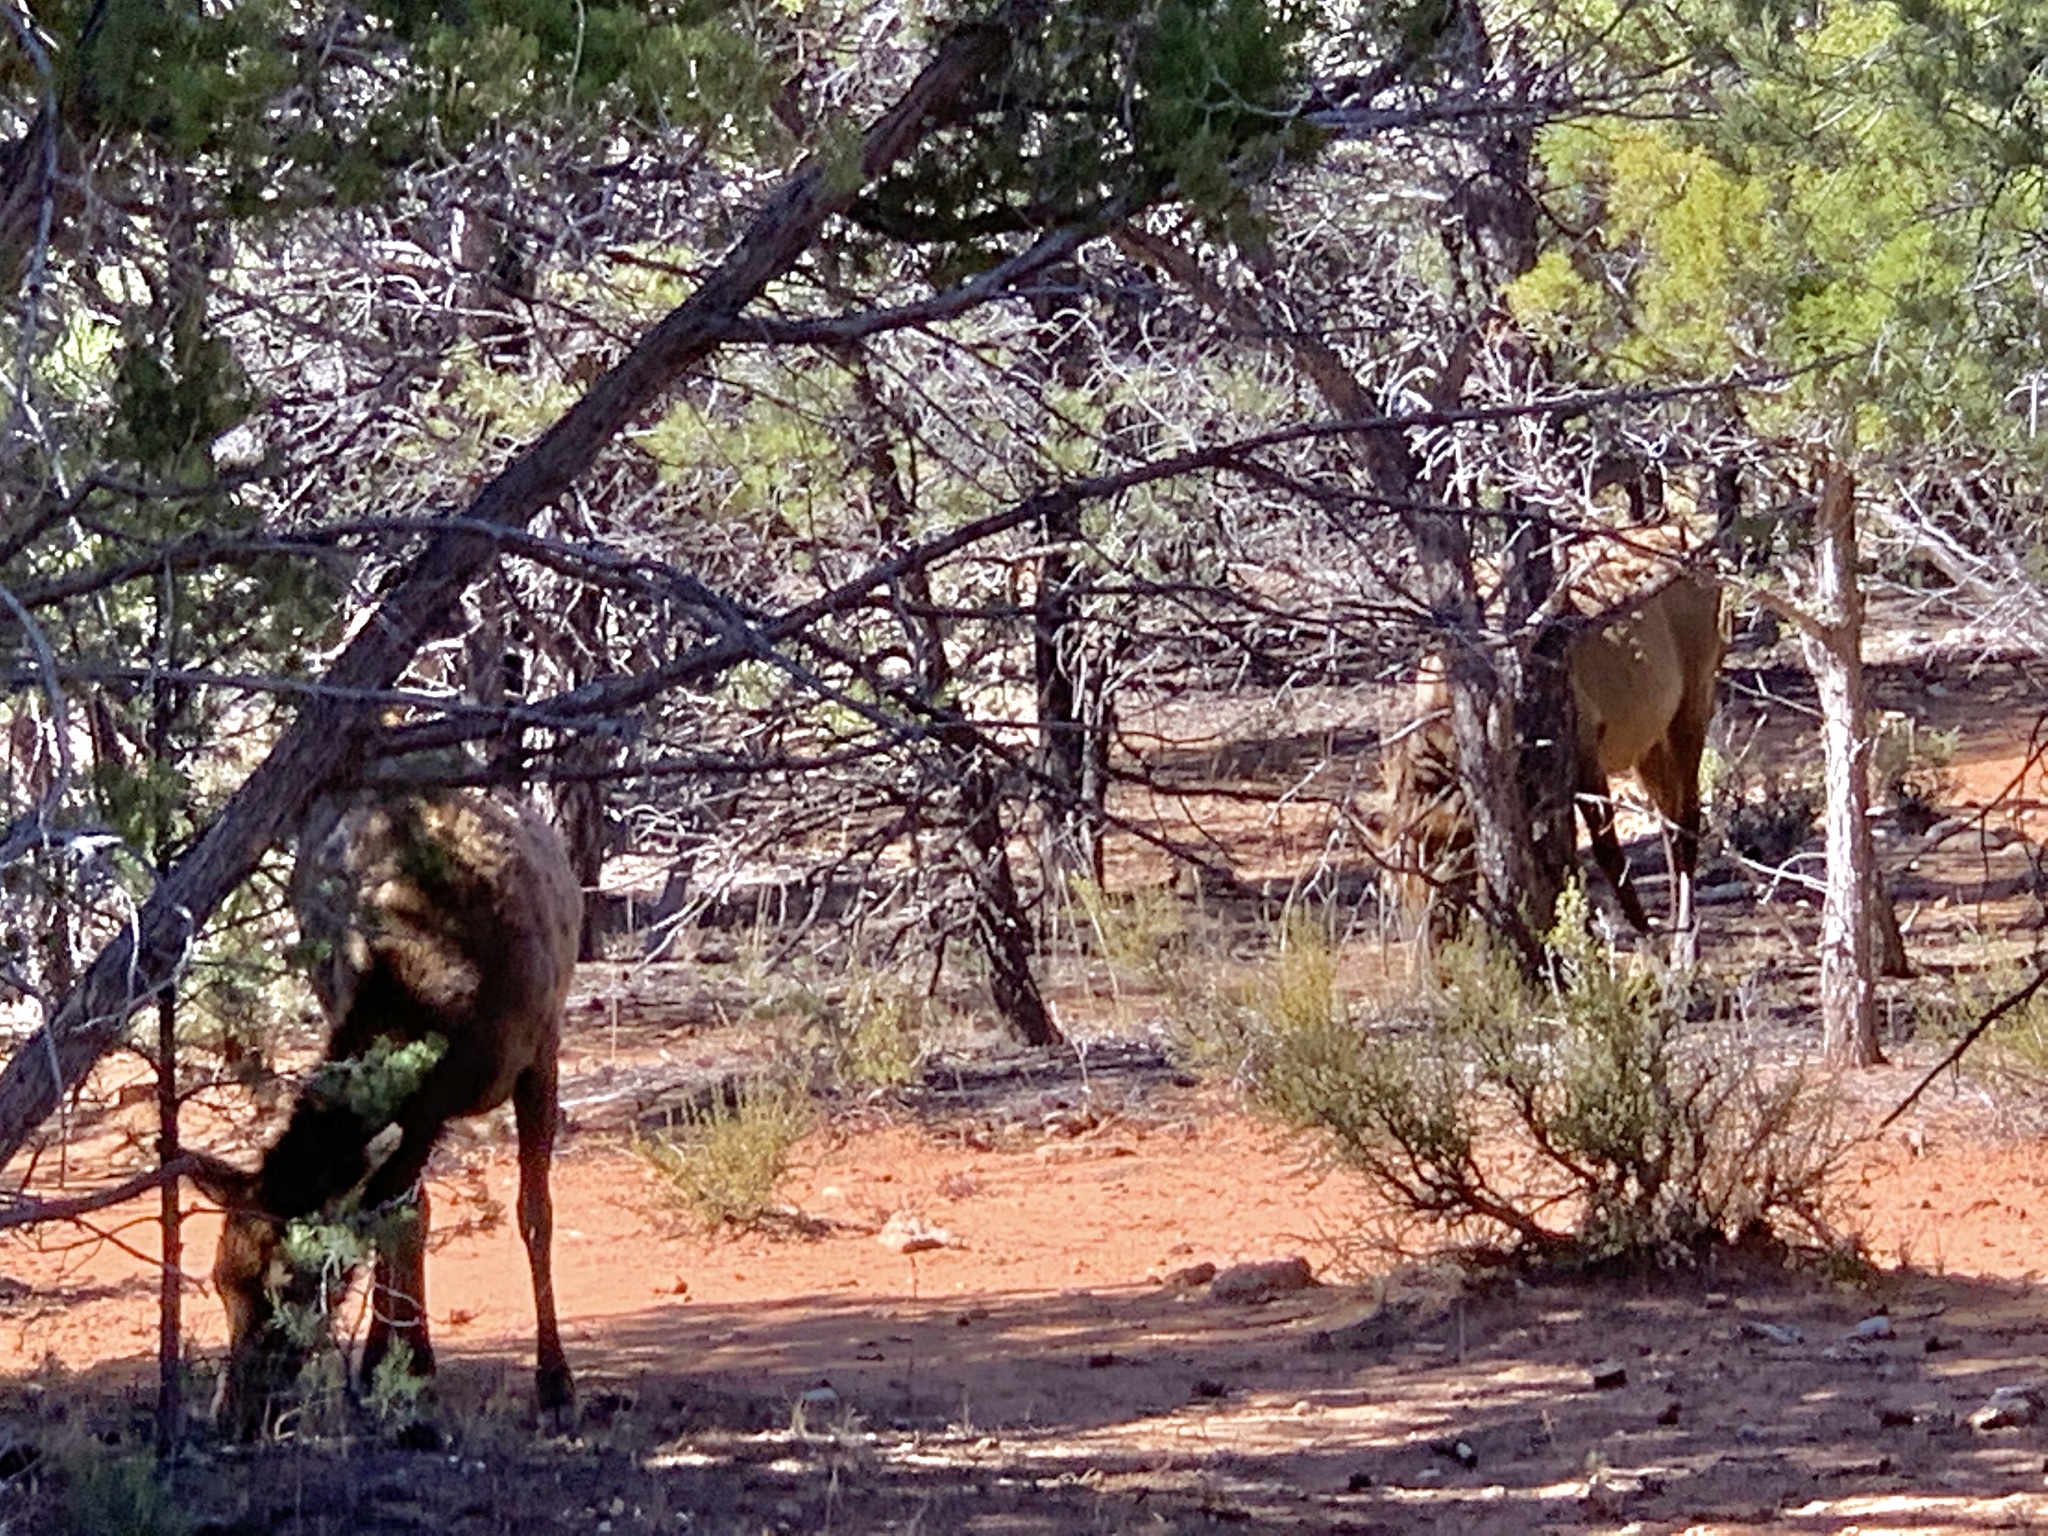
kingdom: Animalia
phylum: Chordata
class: Mammalia
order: Artiodactyla
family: Cervidae
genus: Cervus
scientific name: Cervus elaphus
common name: Red deer
